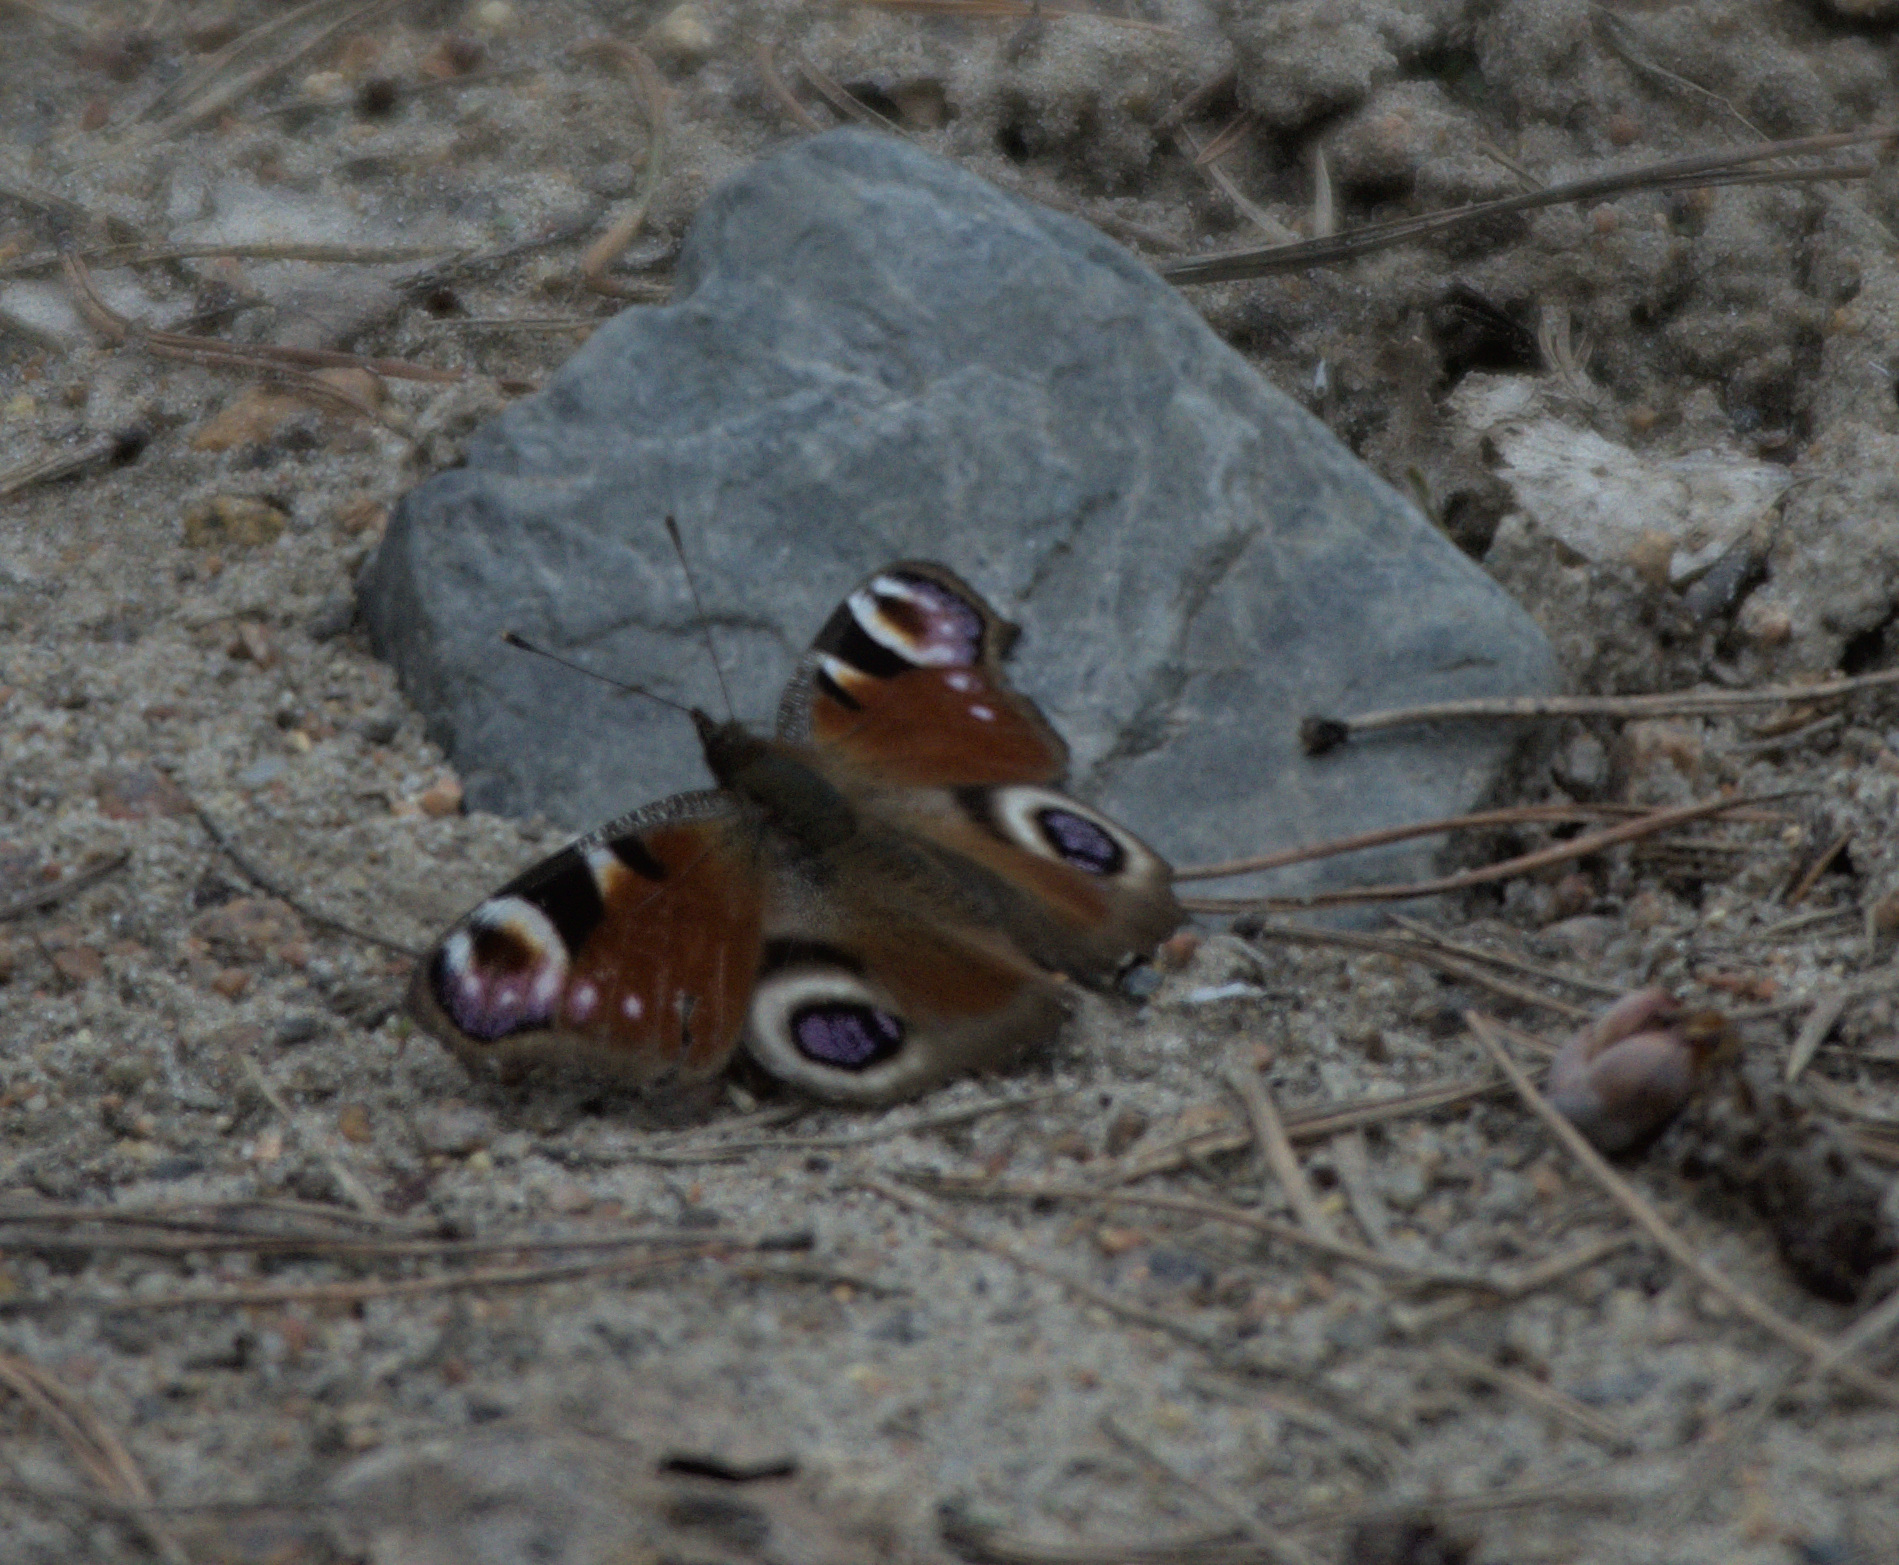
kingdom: Animalia
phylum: Arthropoda
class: Insecta
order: Lepidoptera
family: Nymphalidae
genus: Aglais
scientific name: Aglais io
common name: Peacock
